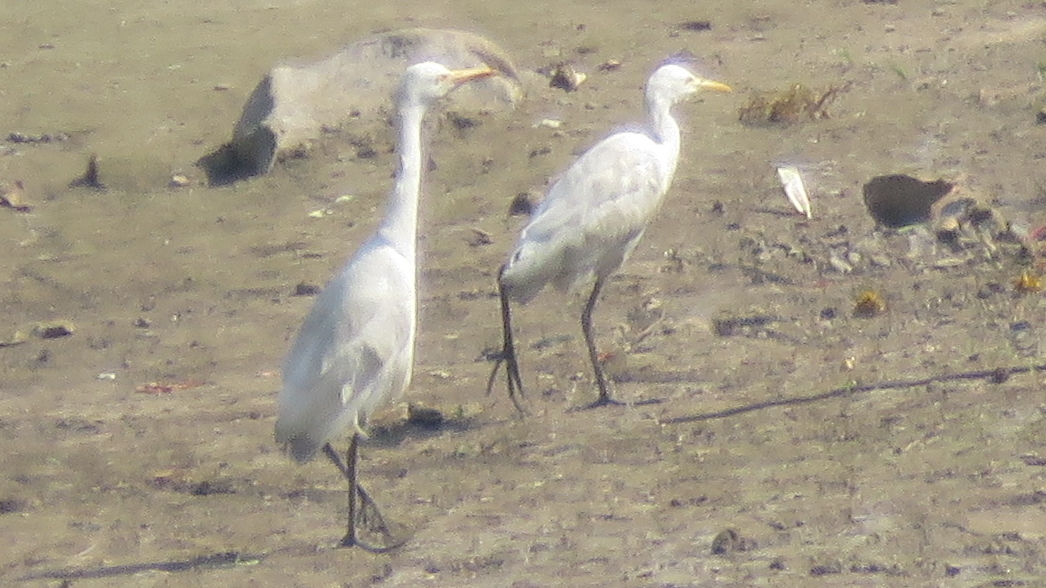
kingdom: Animalia
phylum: Chordata
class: Aves
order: Pelecaniformes
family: Ardeidae
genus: Bubulcus
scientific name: Bubulcus coromandus
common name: Eastern cattle egret
